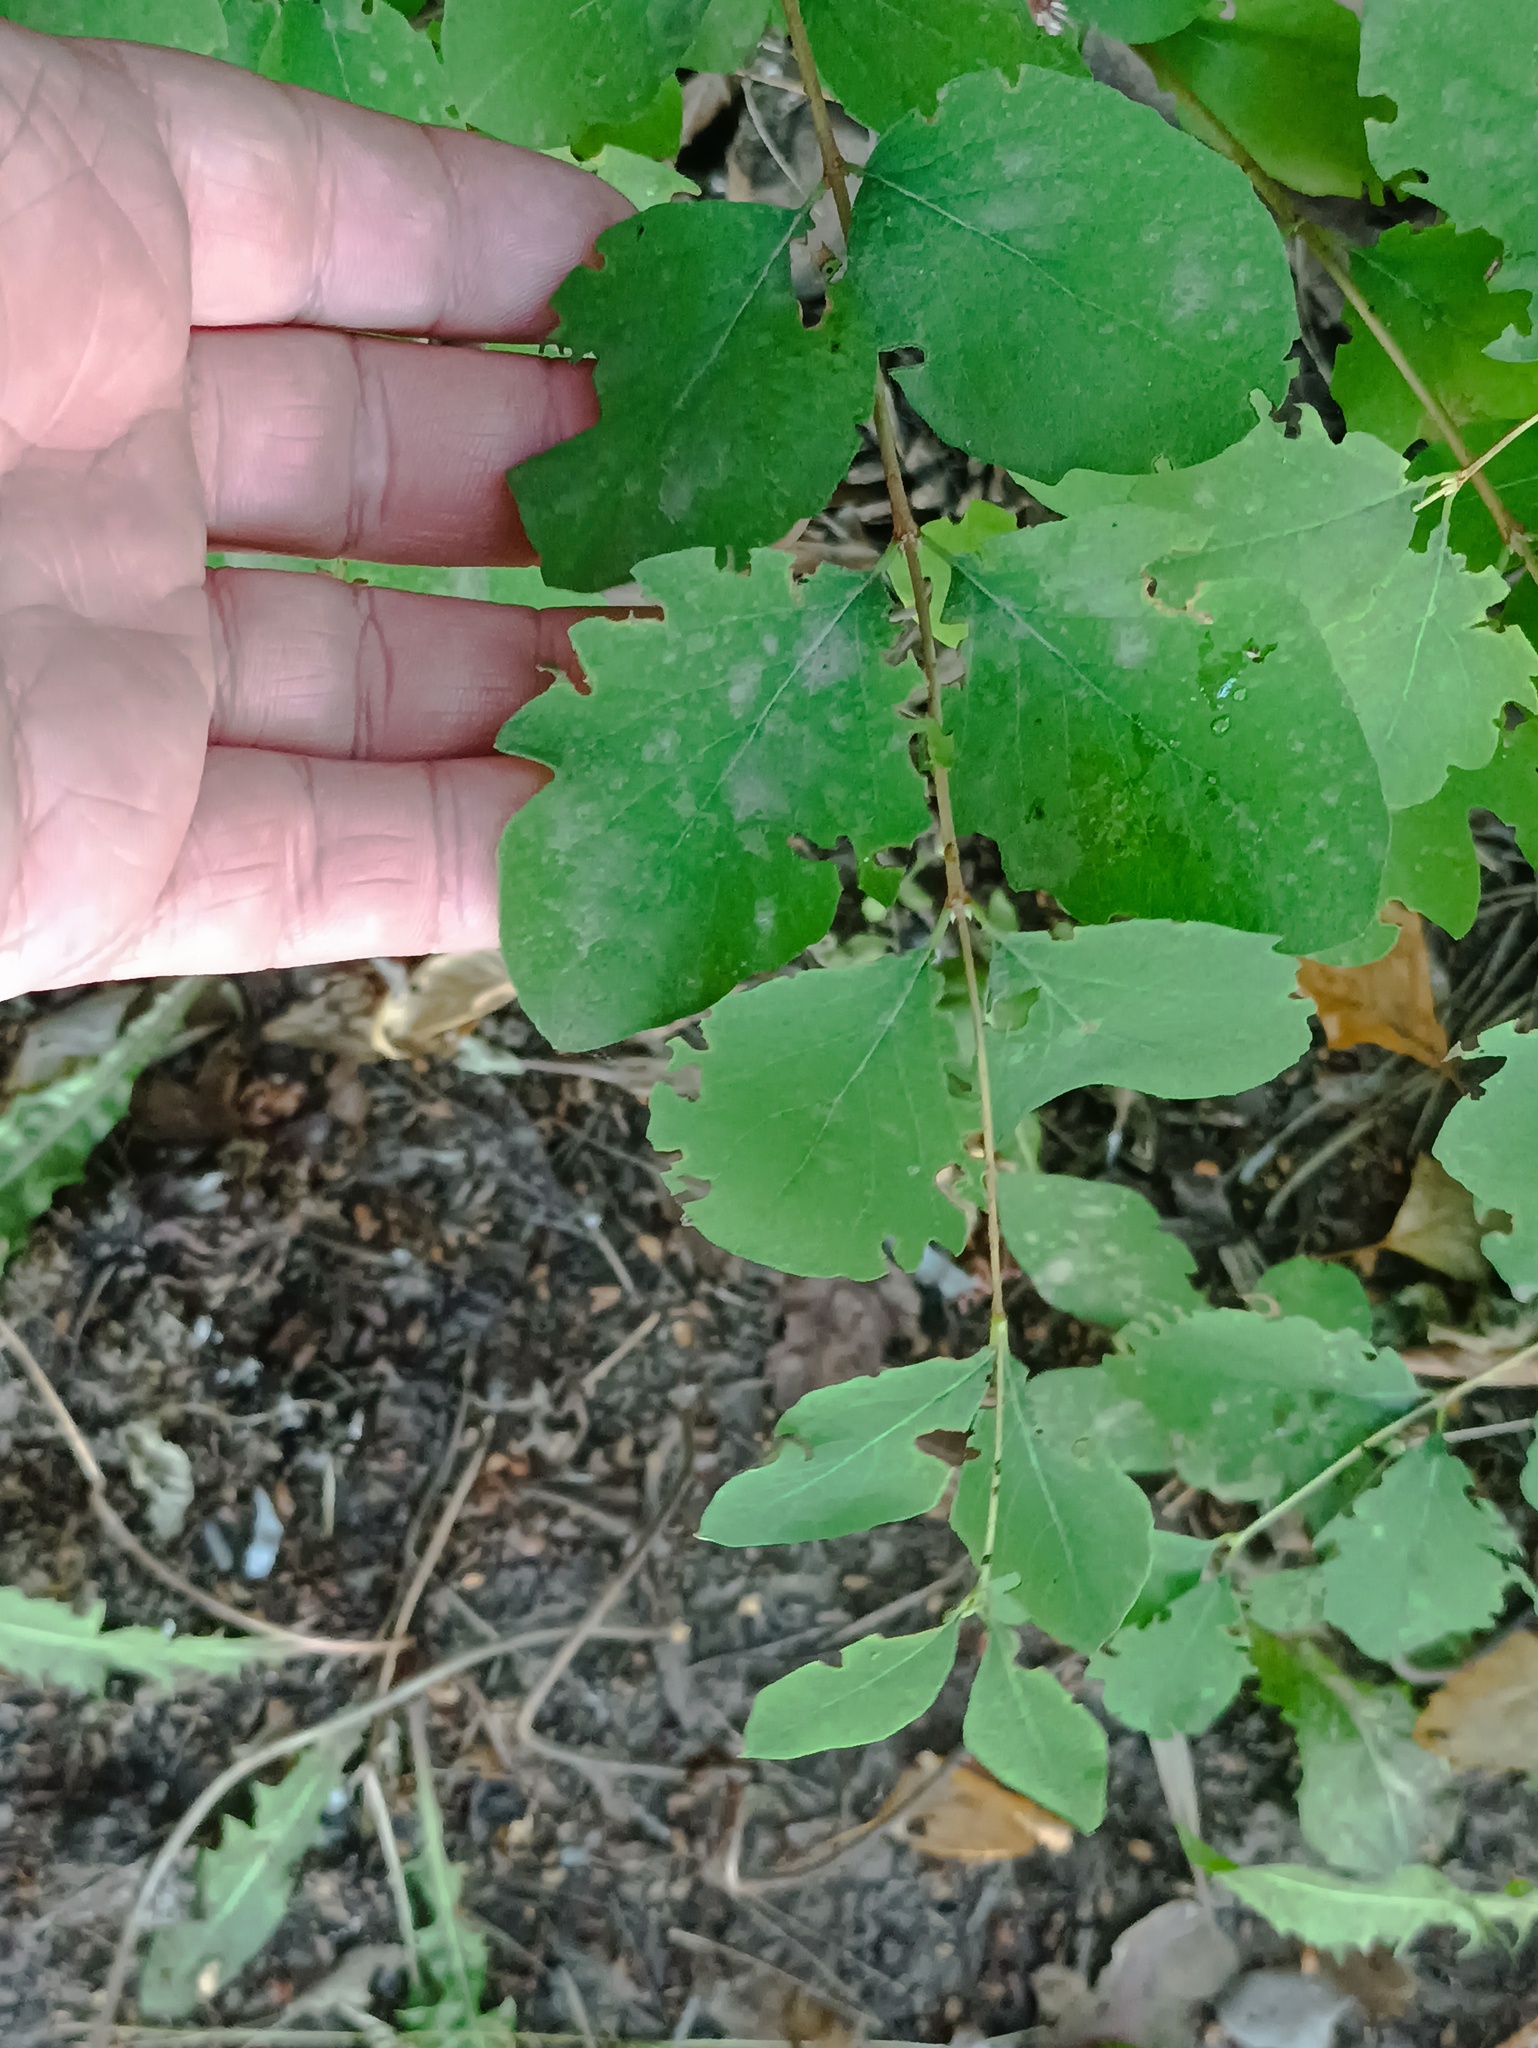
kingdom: Plantae
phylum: Tracheophyta
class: Magnoliopsida
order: Dipsacales
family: Caprifoliaceae
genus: Symphoricarpos
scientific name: Symphoricarpos albus
